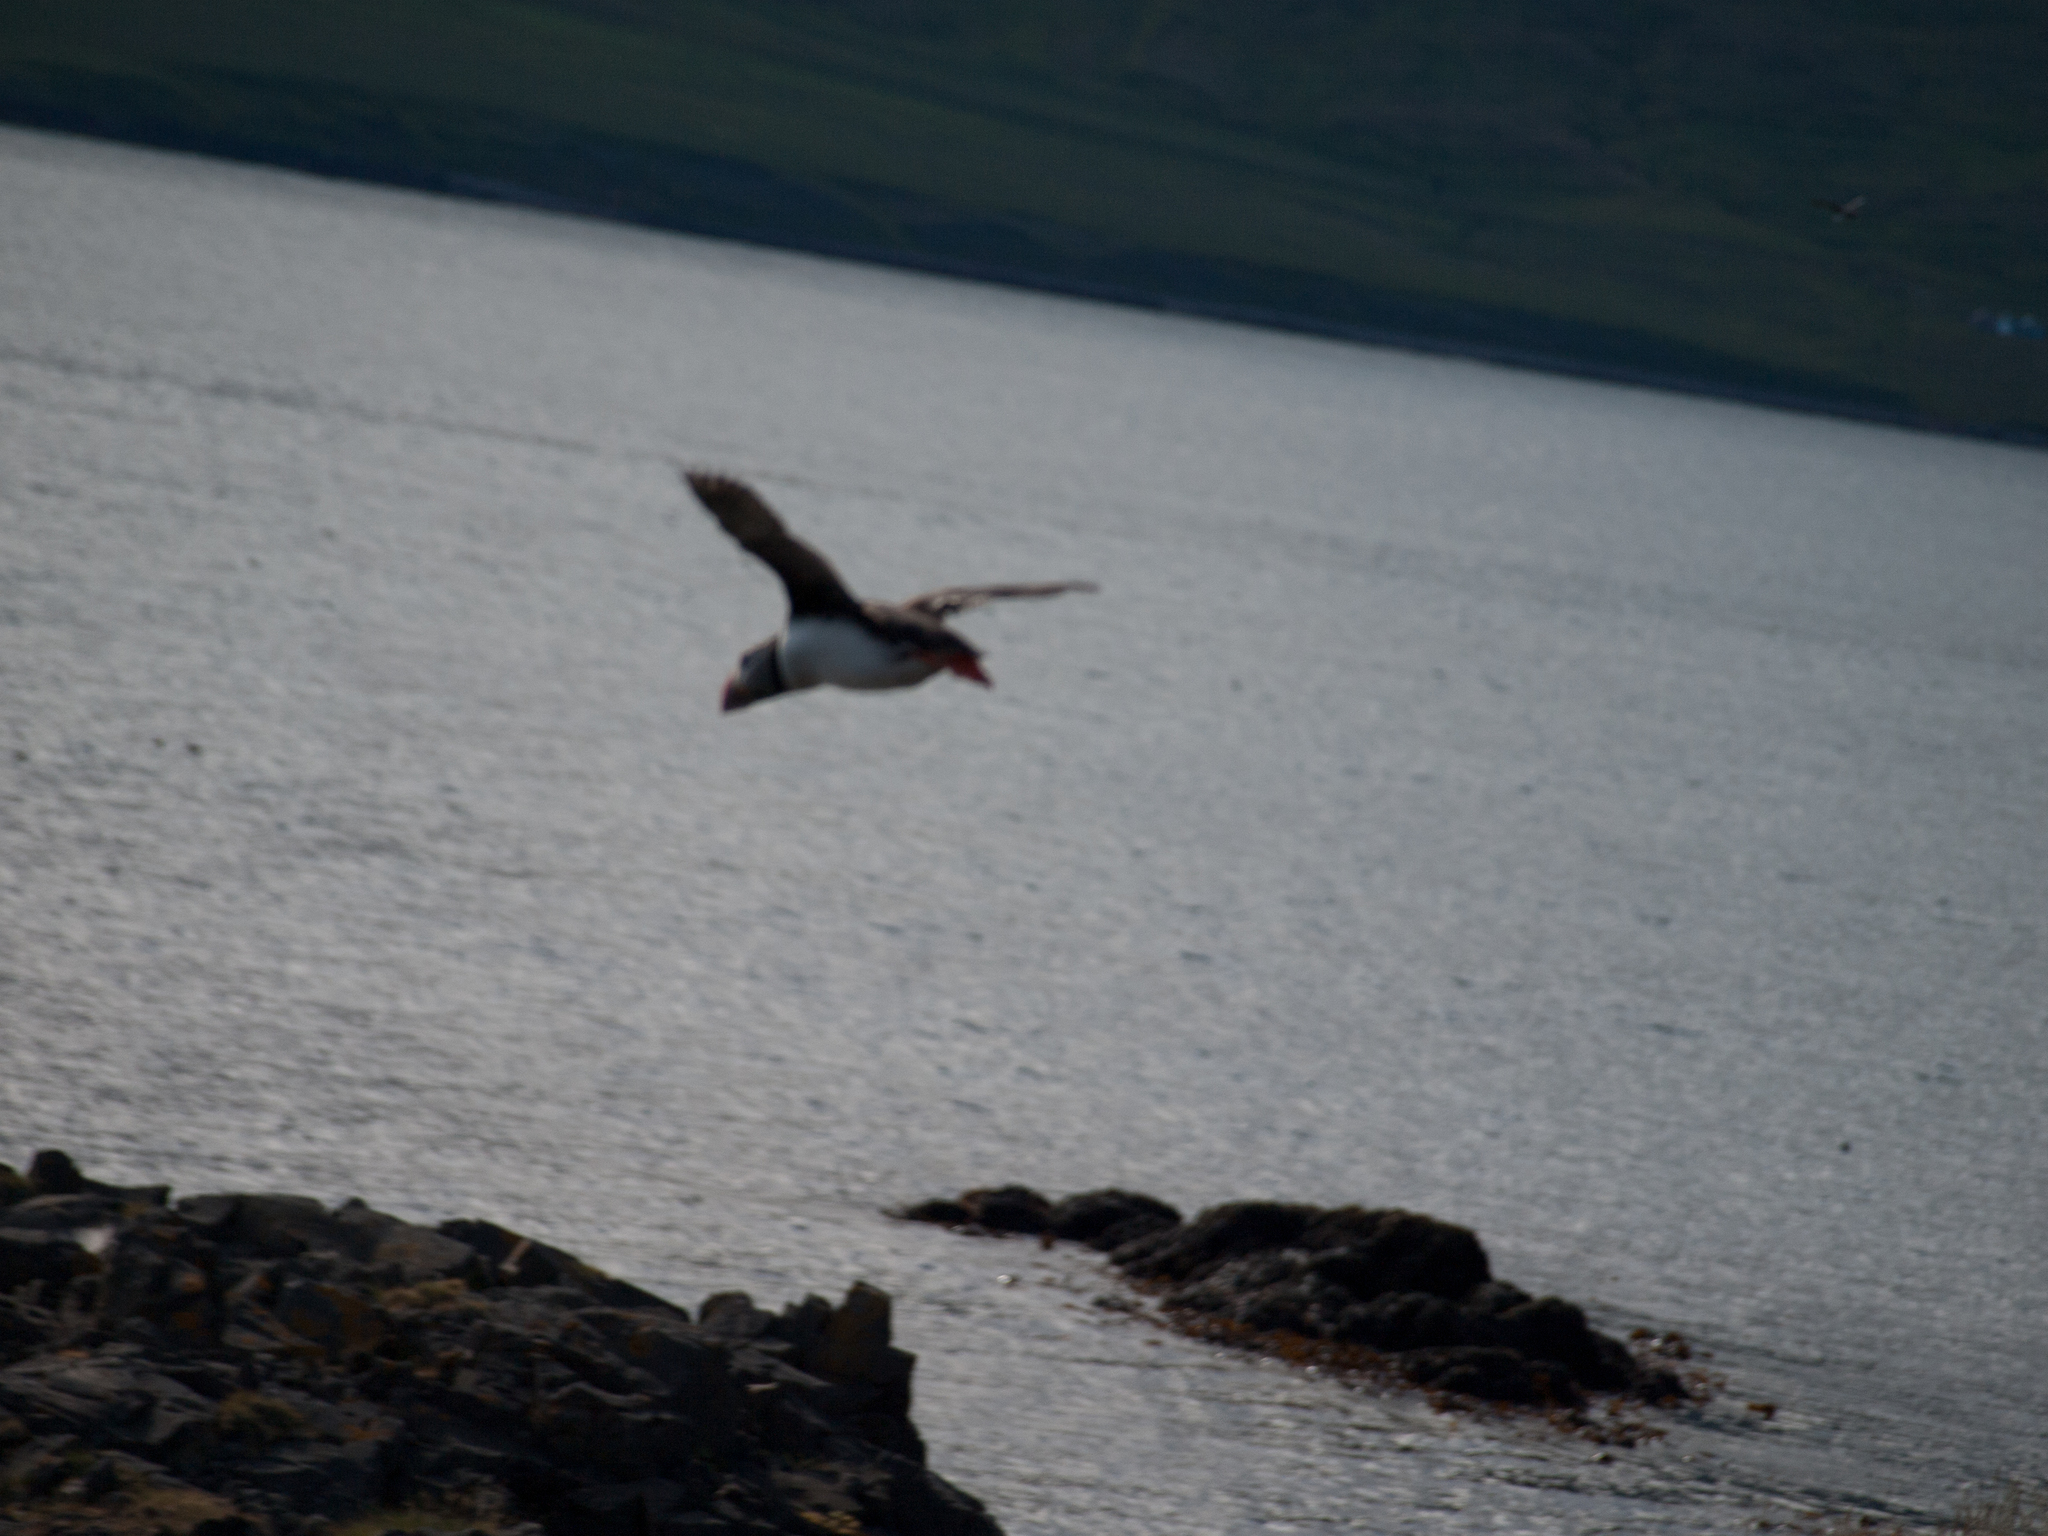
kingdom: Animalia
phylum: Chordata
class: Aves
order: Charadriiformes
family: Alcidae
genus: Fratercula
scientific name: Fratercula arctica
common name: Atlantic puffin
